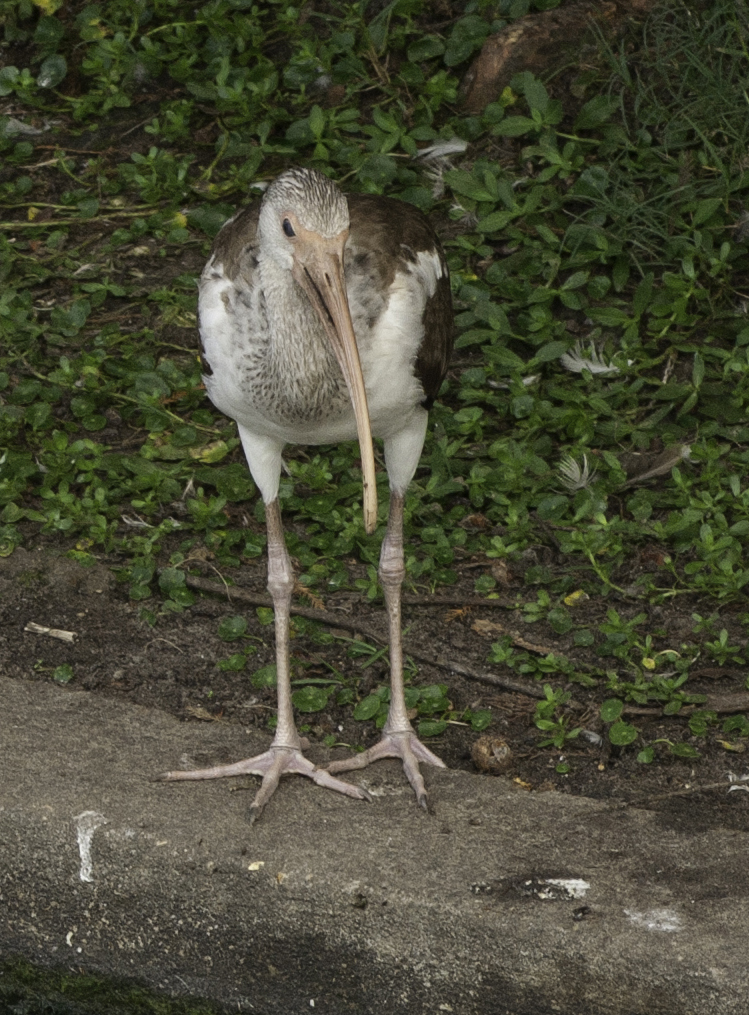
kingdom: Animalia
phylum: Chordata
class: Aves
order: Pelecaniformes
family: Threskiornithidae
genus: Eudocimus
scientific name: Eudocimus albus
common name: White ibis
